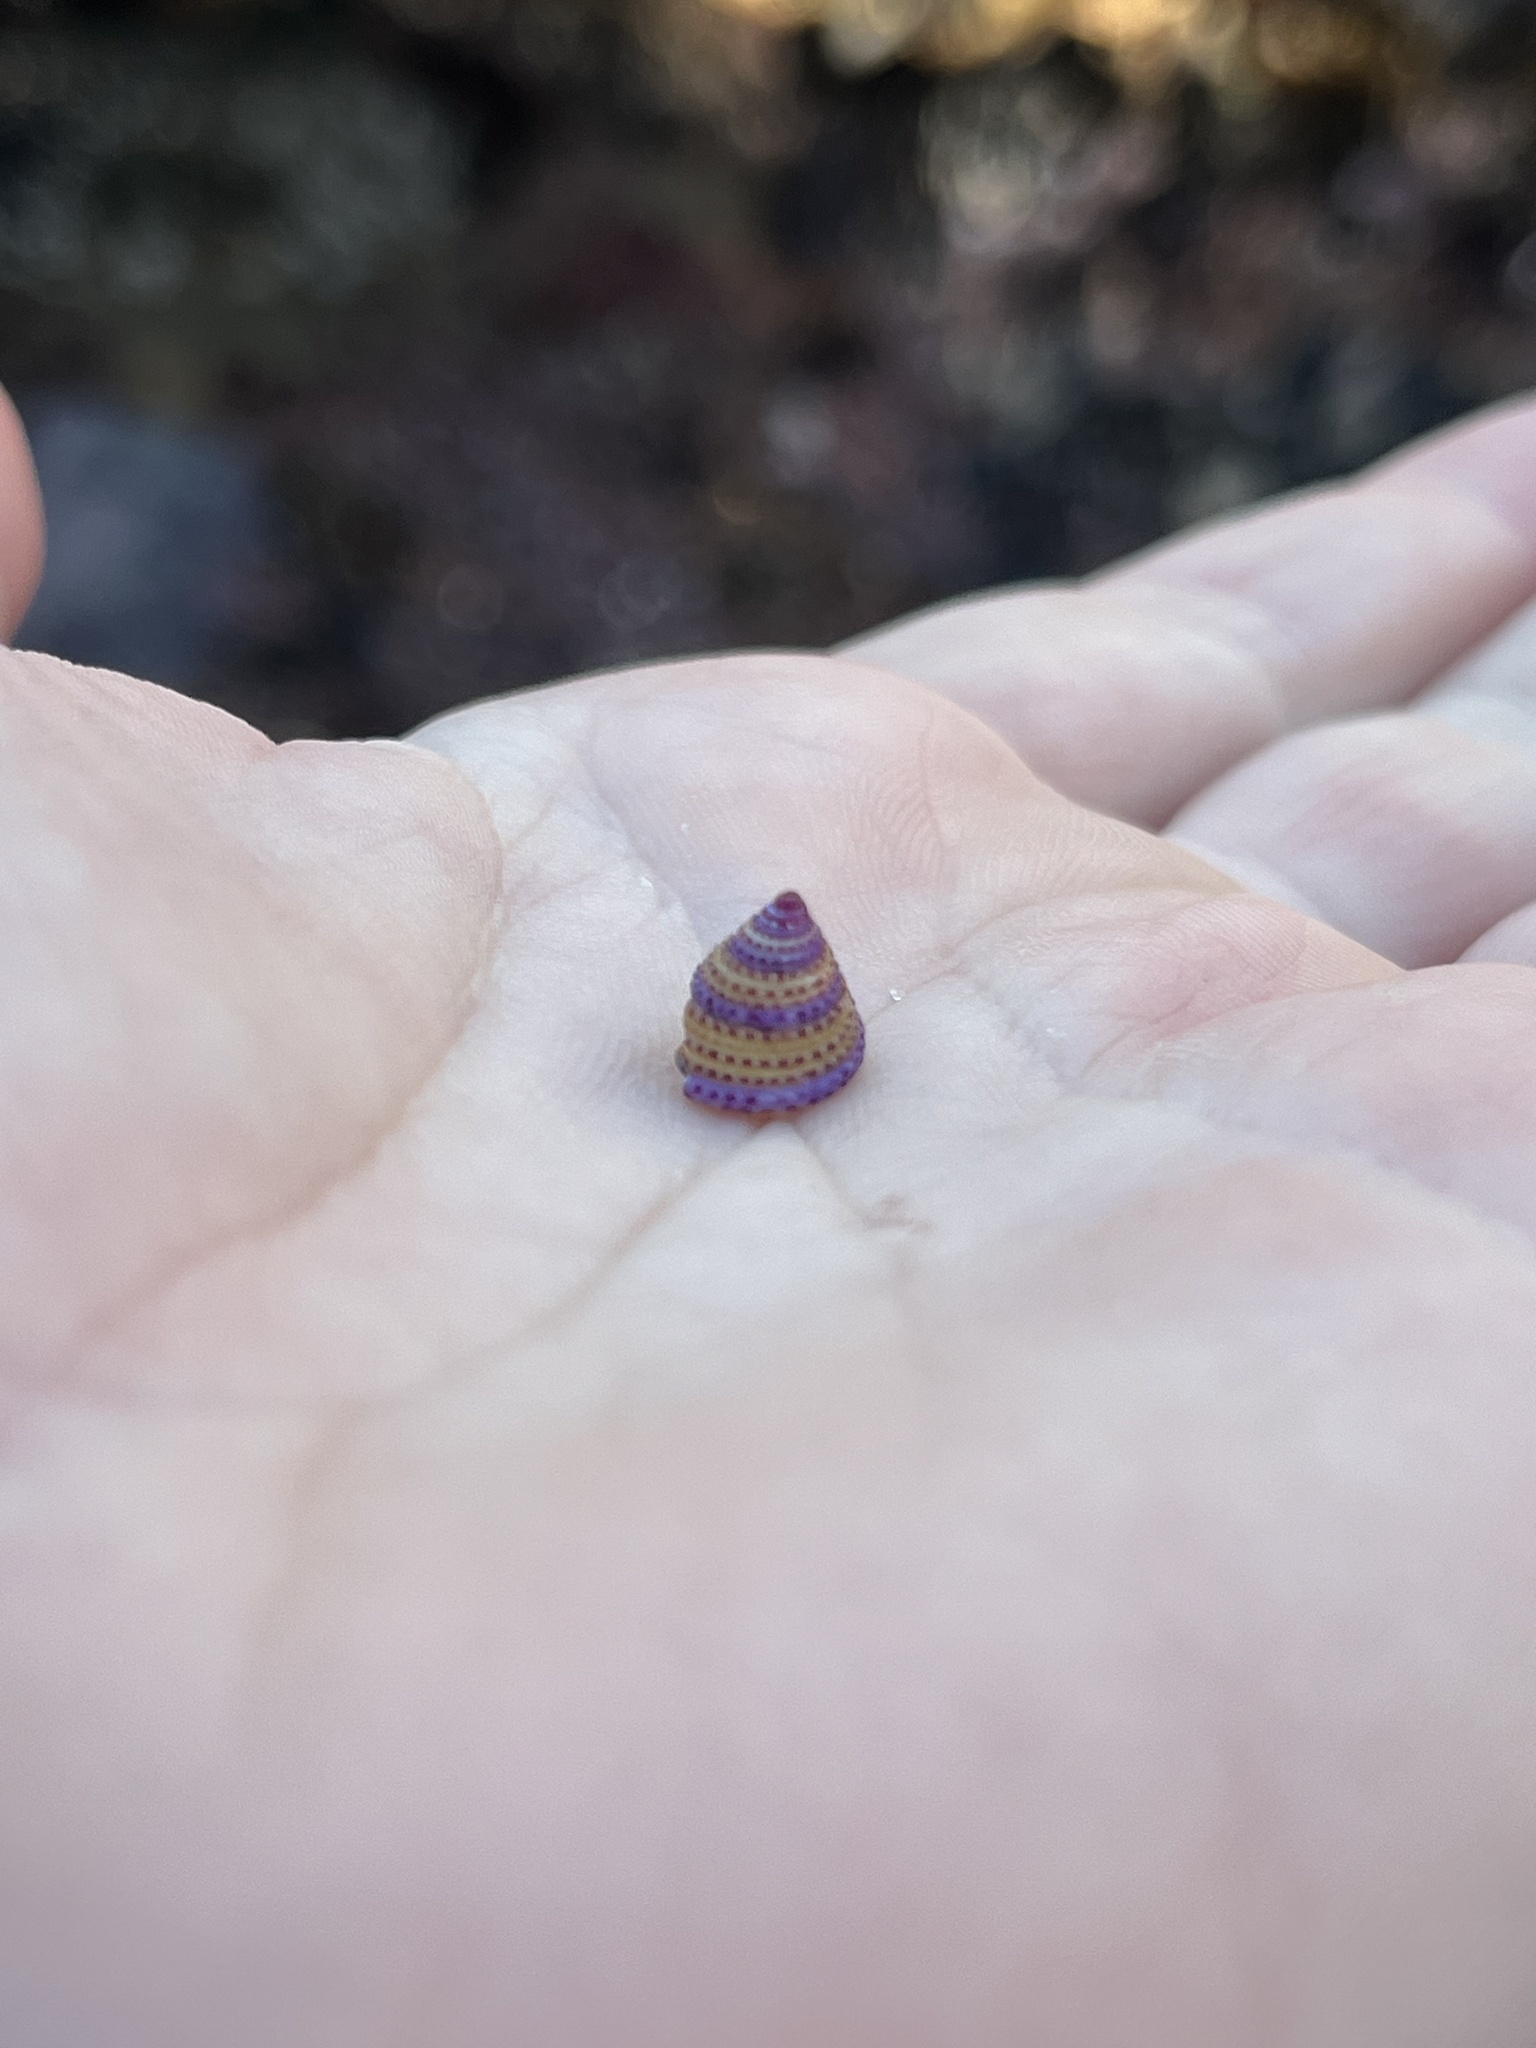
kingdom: Animalia
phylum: Mollusca
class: Gastropoda
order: Trochida
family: Calliostomatidae
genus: Calliostoma
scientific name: Calliostoma annulatum
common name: Blue-ring topsnail
